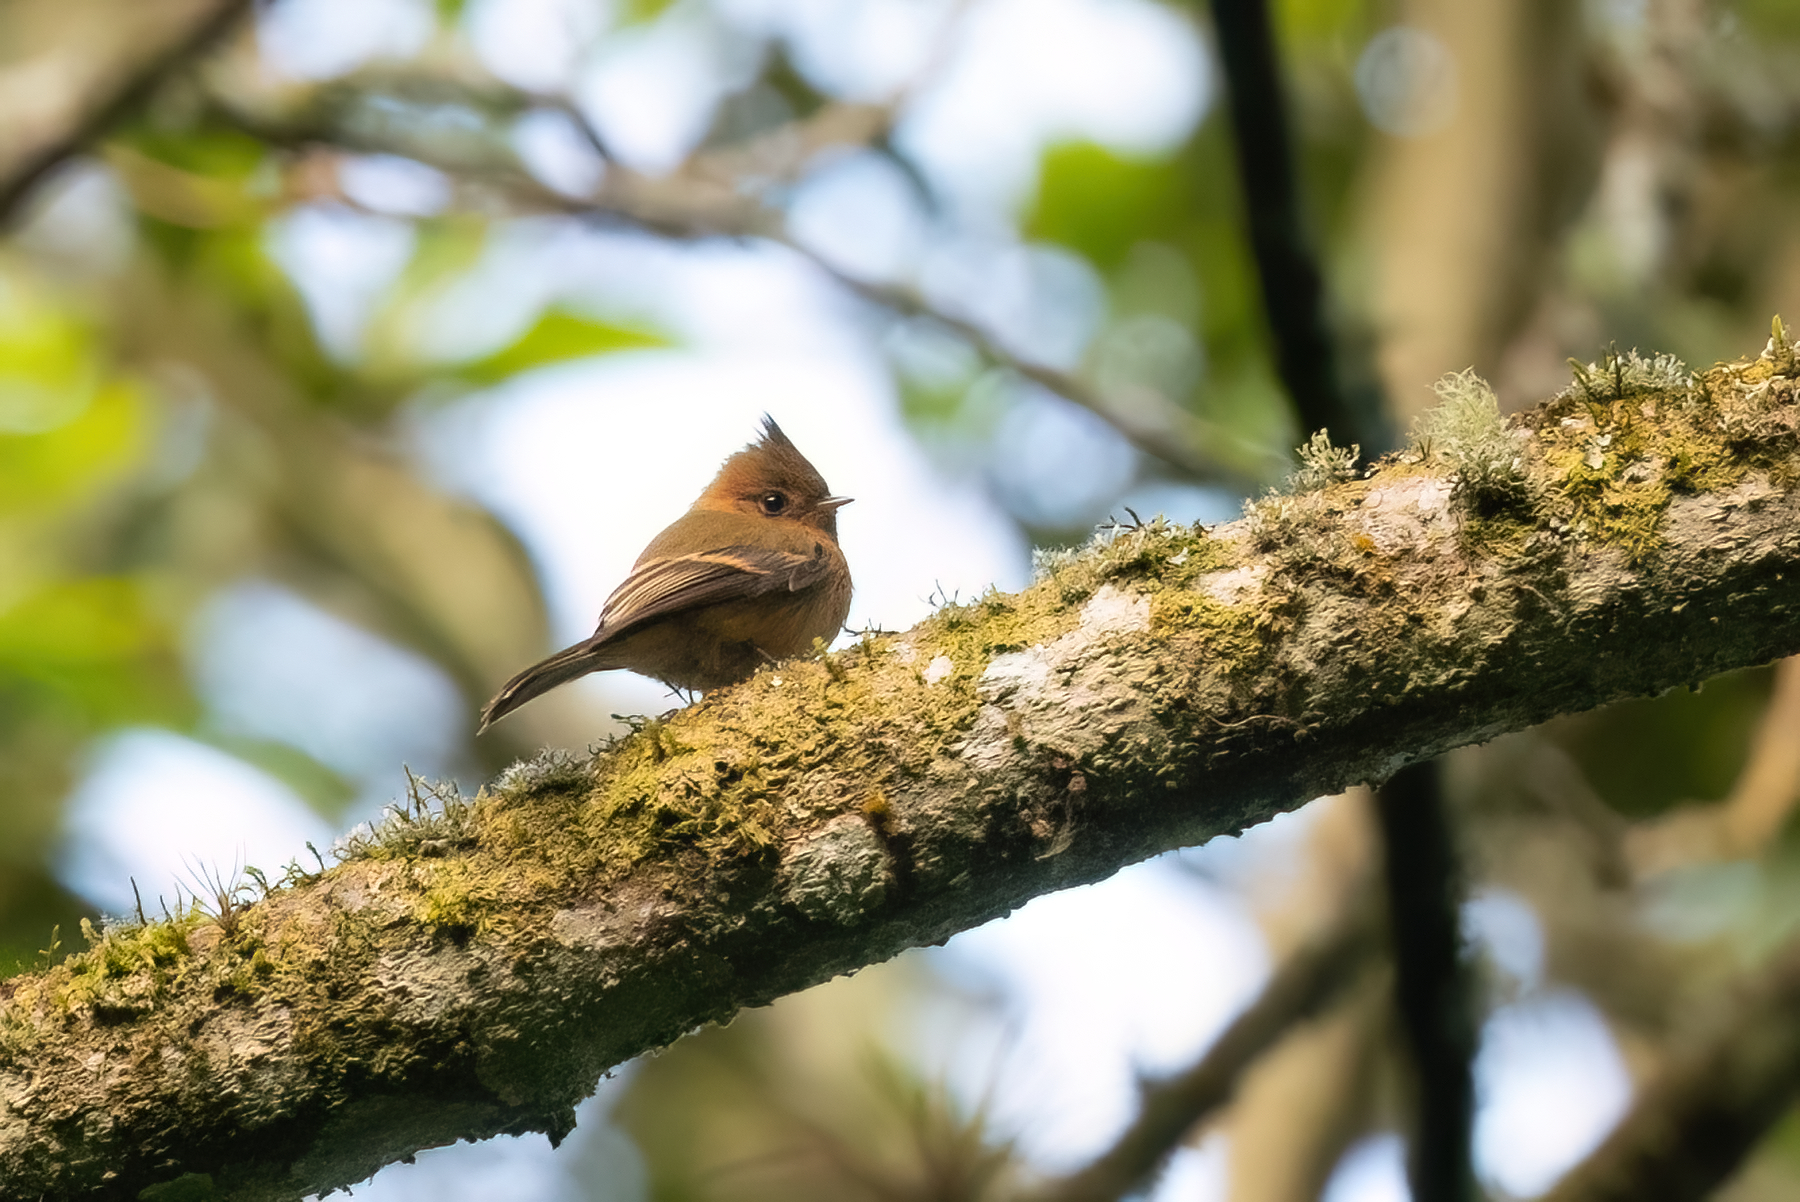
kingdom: Animalia
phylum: Chordata
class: Aves
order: Passeriformes
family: Tyrannidae
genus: Mitrephanes
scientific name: Mitrephanes phaeocercus
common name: Northern tufted flycatcher
